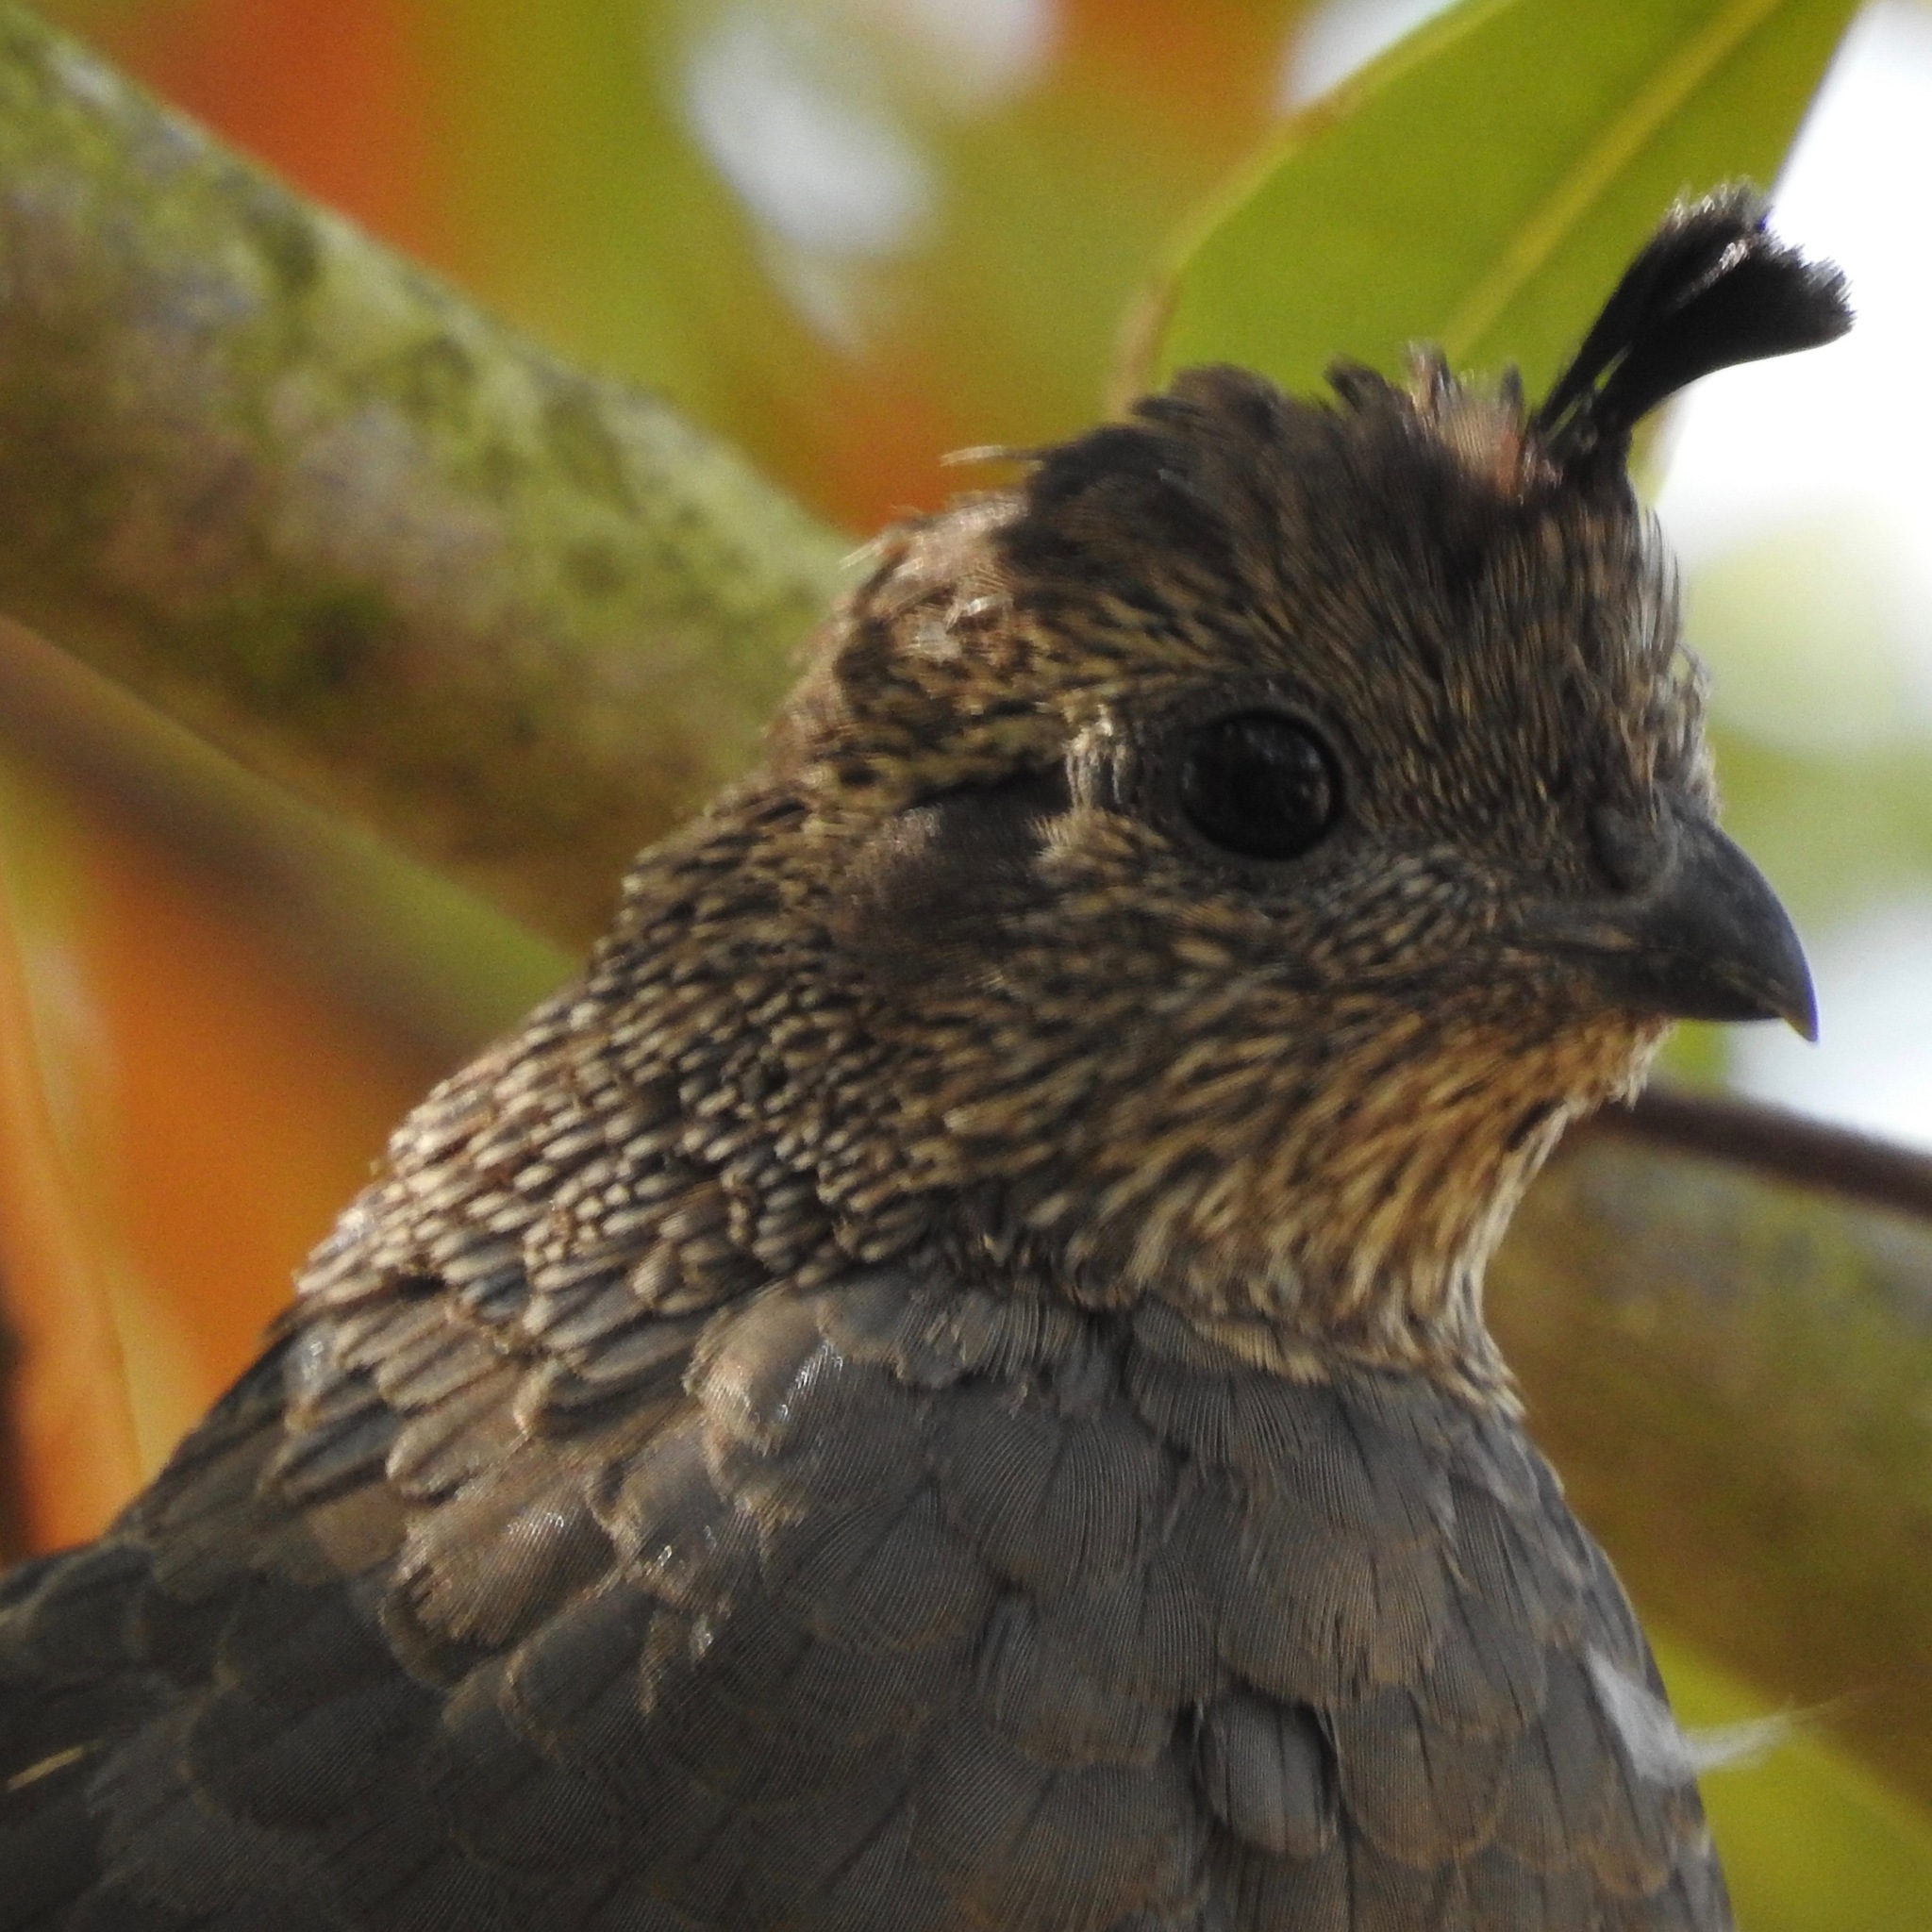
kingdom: Animalia
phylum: Chordata
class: Aves
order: Galliformes
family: Odontophoridae
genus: Callipepla
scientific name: Callipepla californica
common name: California quail
